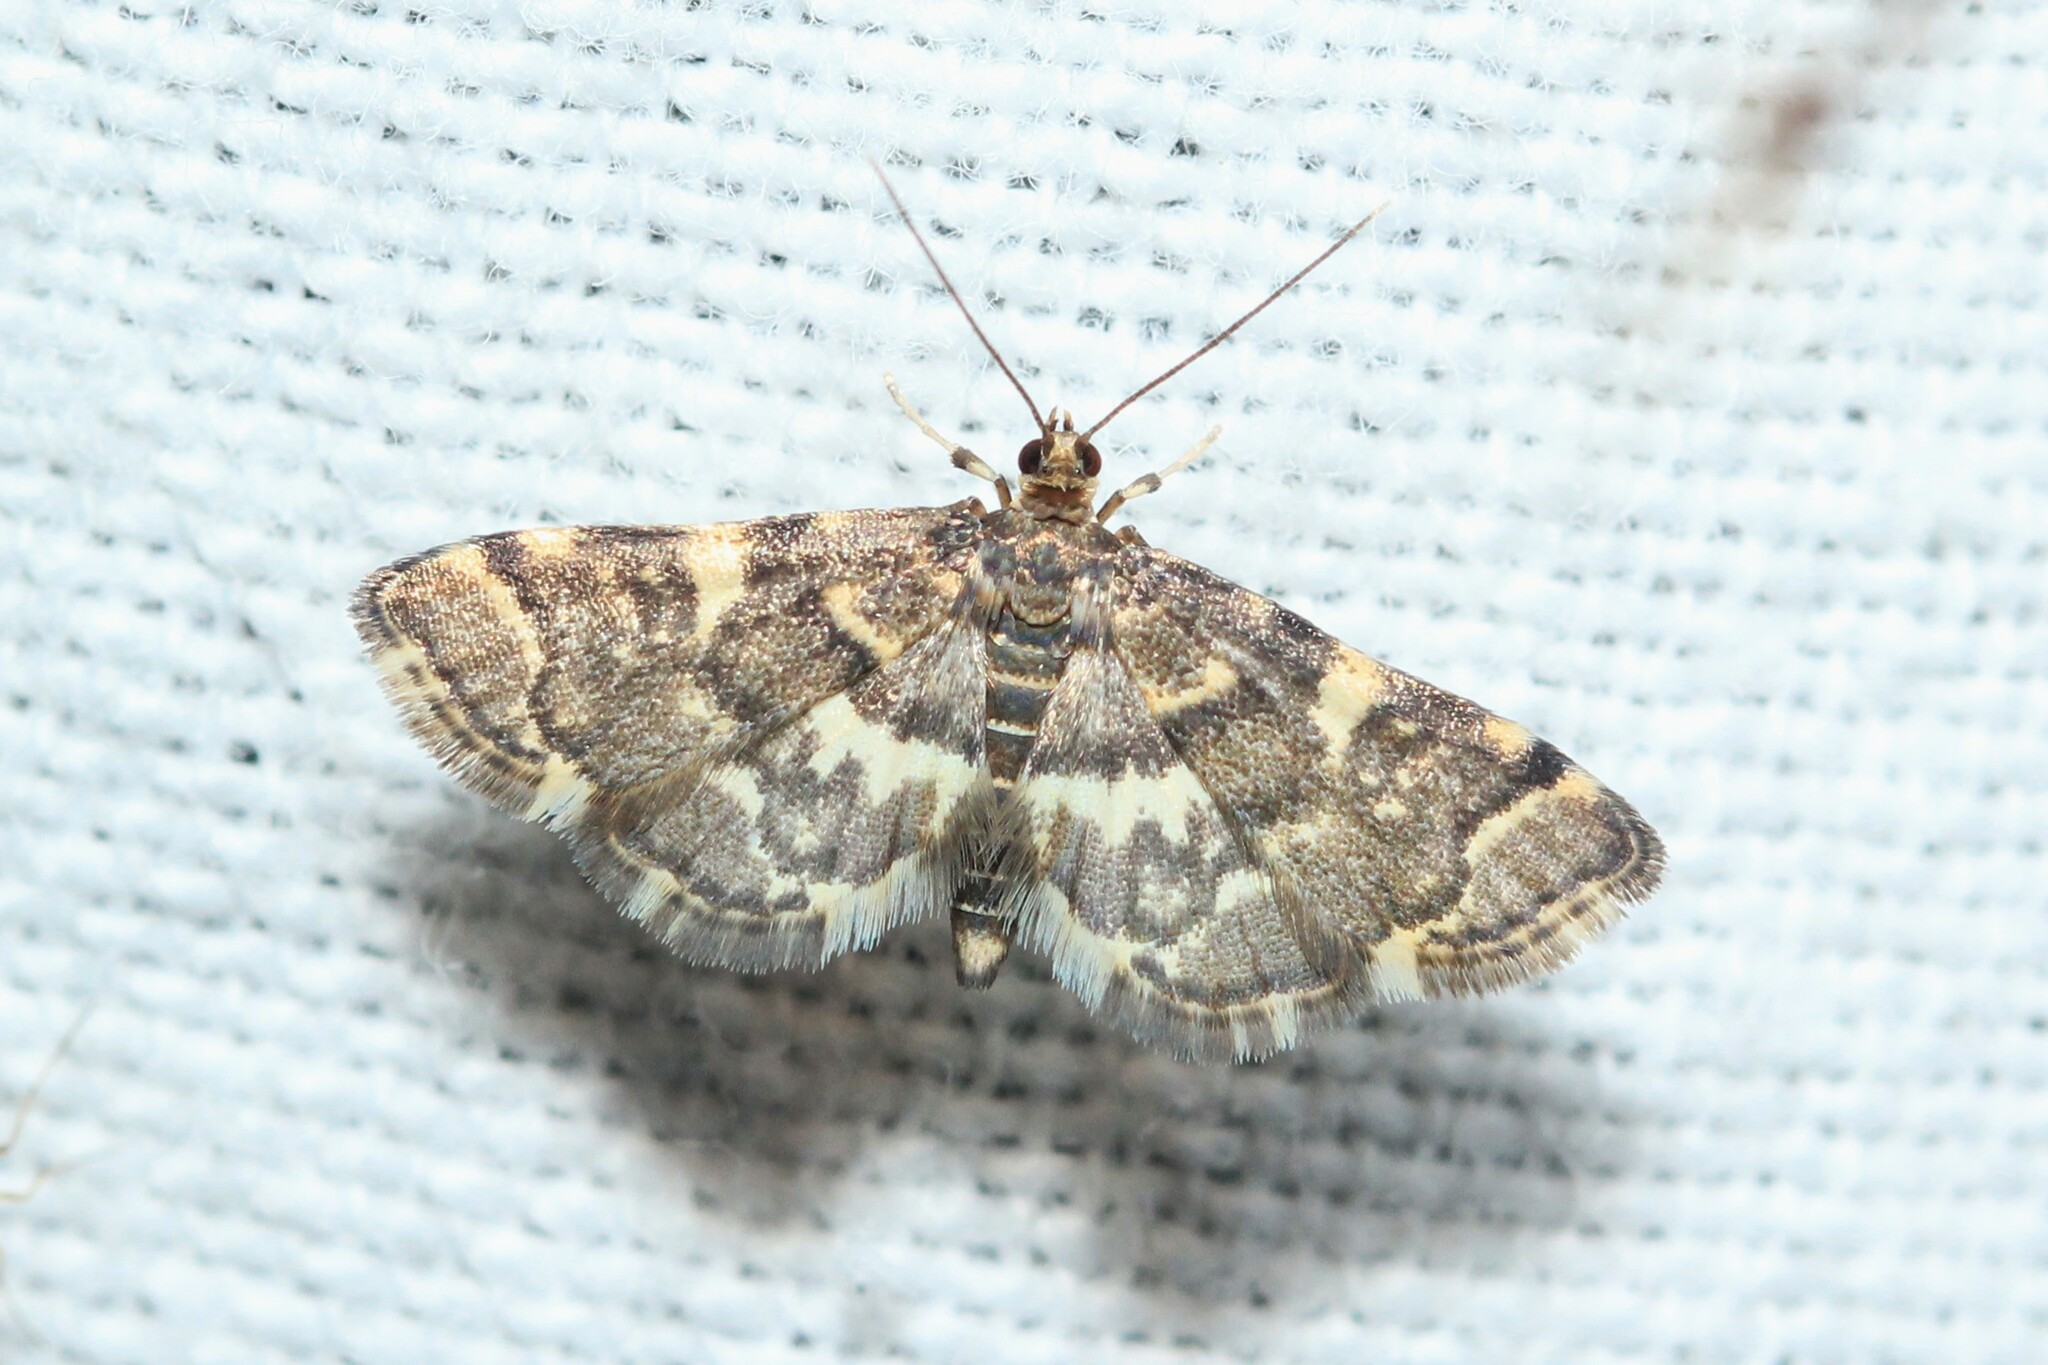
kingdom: Animalia
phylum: Arthropoda
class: Insecta
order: Lepidoptera
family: Crambidae
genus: Anageshna
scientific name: Anageshna primordialis
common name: Yellow-spotted webworm moth
